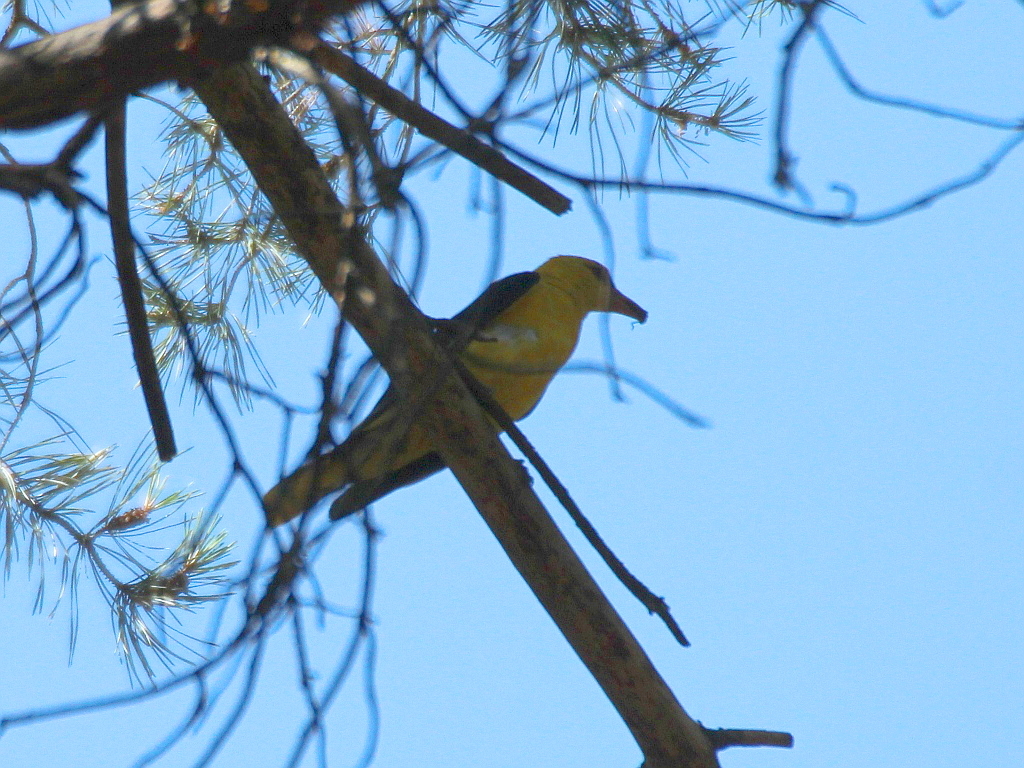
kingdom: Animalia
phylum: Chordata
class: Aves
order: Passeriformes
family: Oriolidae
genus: Oriolus
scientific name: Oriolus oriolus
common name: Eurasian golden oriole
